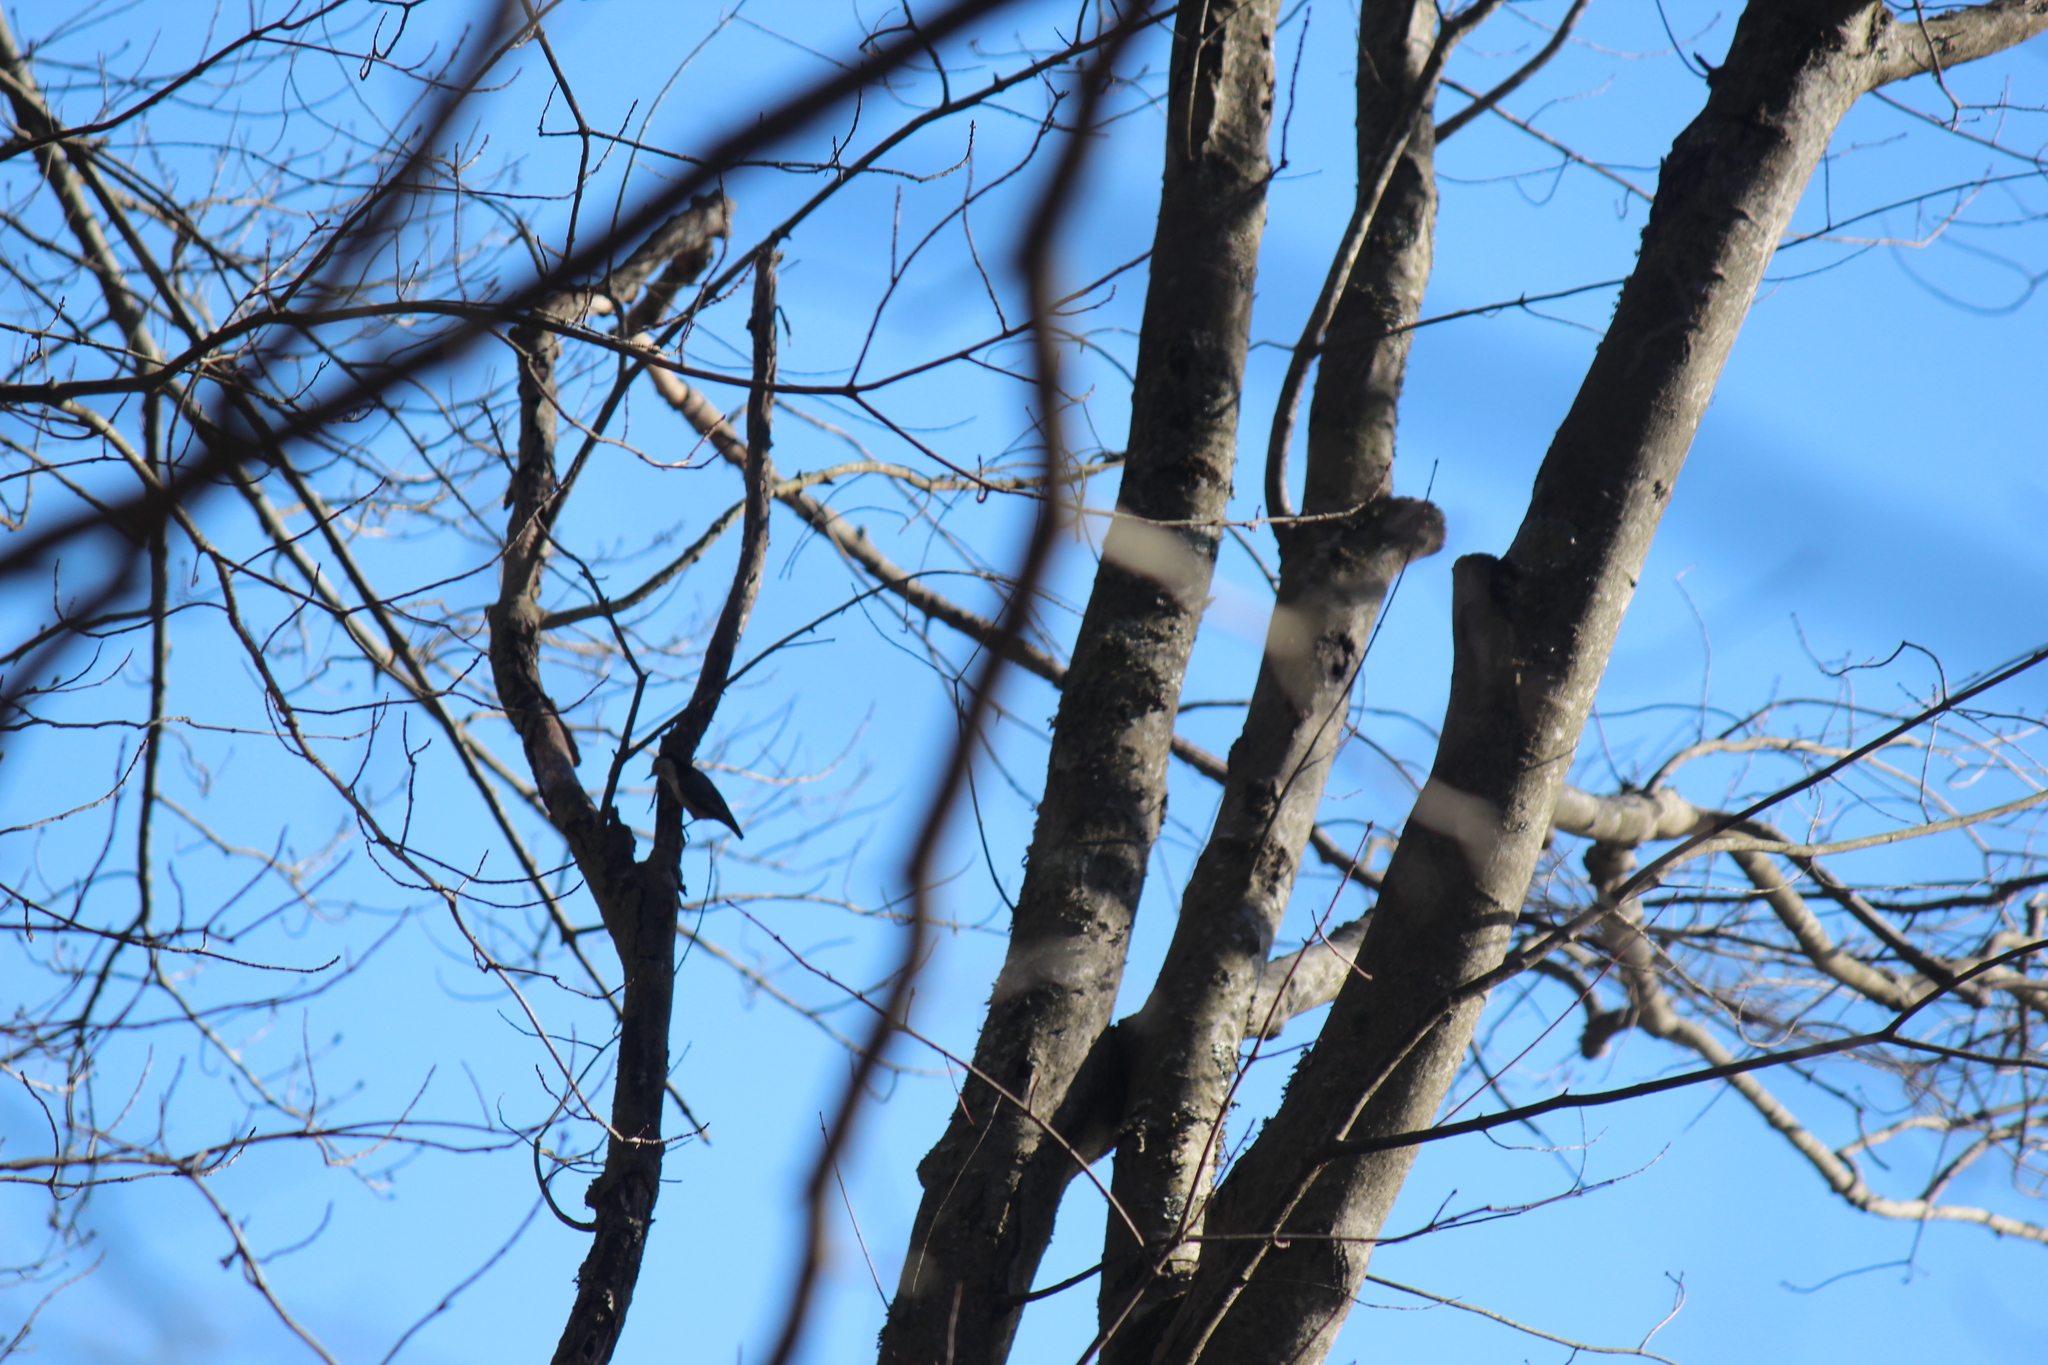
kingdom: Animalia
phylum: Chordata
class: Aves
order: Passeriformes
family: Sittidae
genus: Sitta
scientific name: Sitta carolinensis
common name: White-breasted nuthatch
